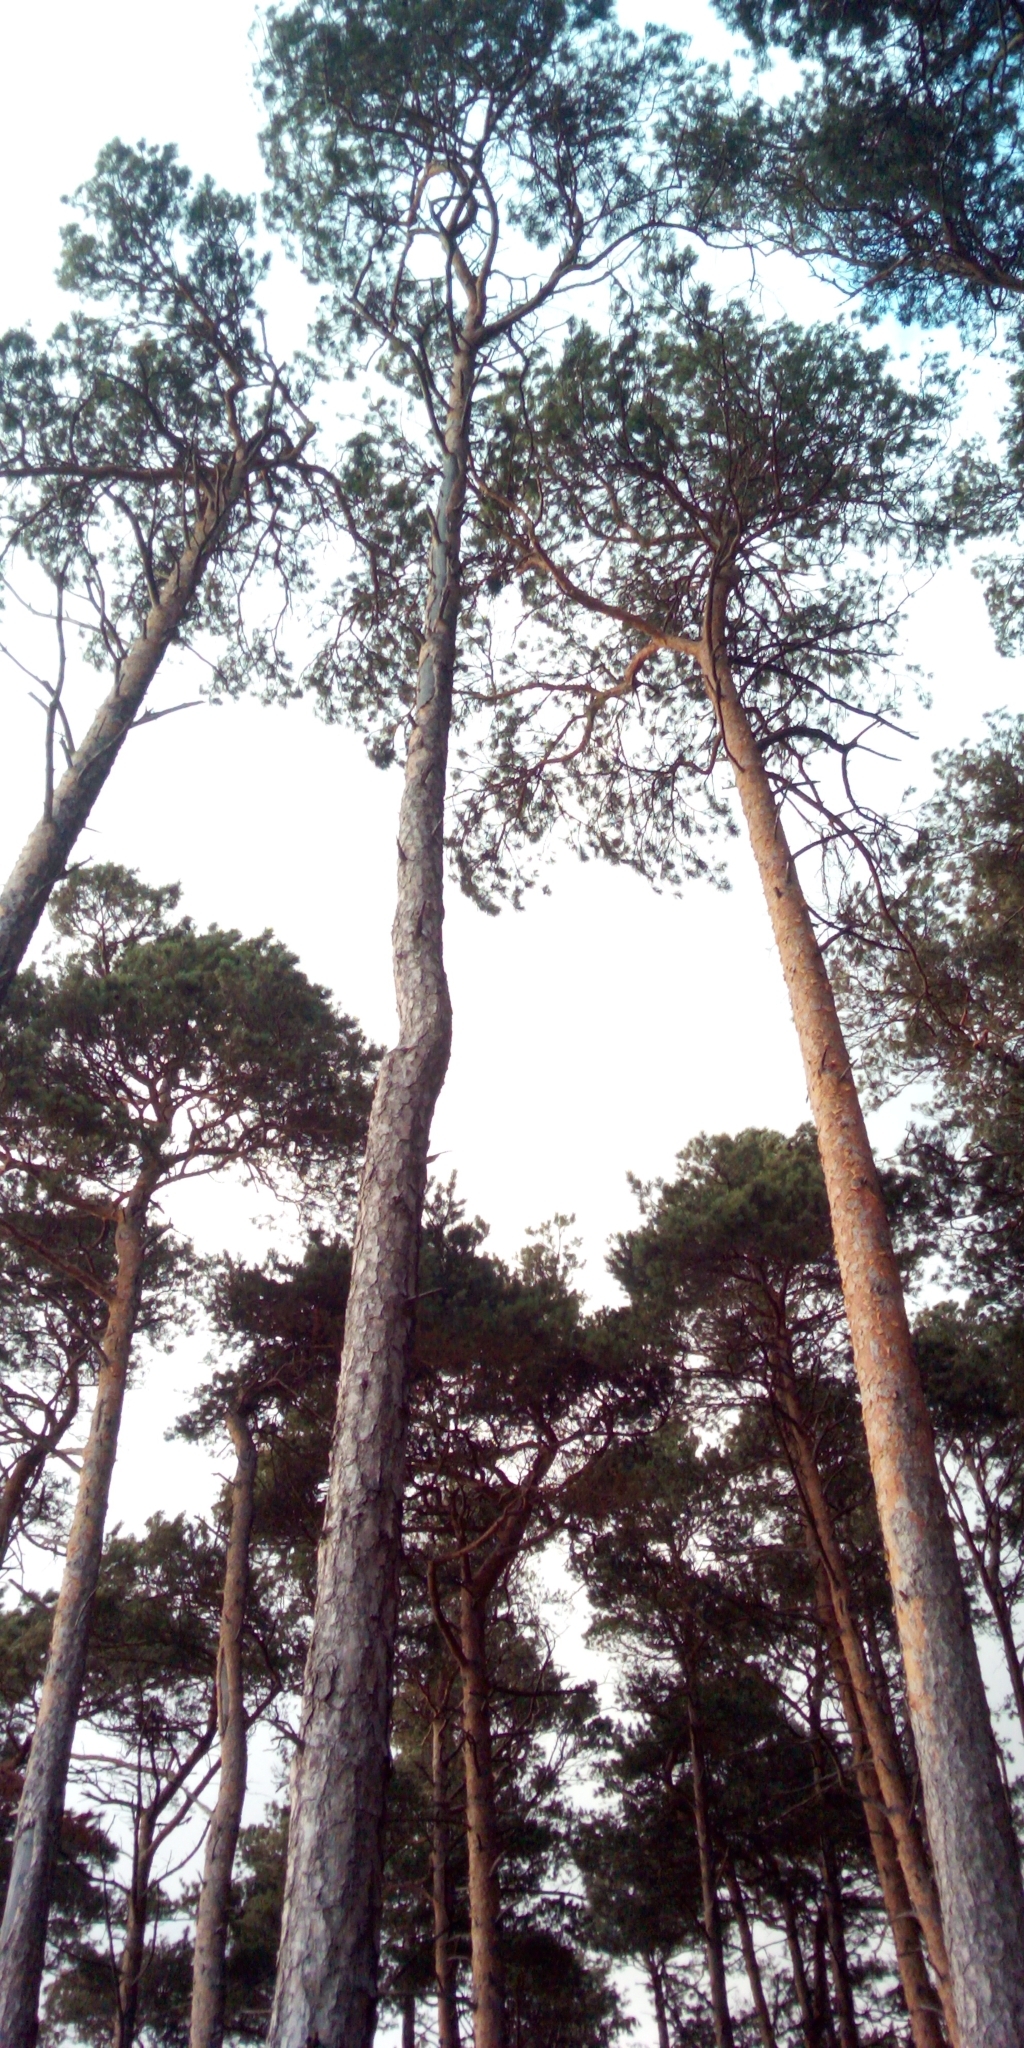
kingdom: Plantae
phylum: Tracheophyta
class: Pinopsida
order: Pinales
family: Pinaceae
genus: Pinus
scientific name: Pinus sylvestris
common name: Scots pine
